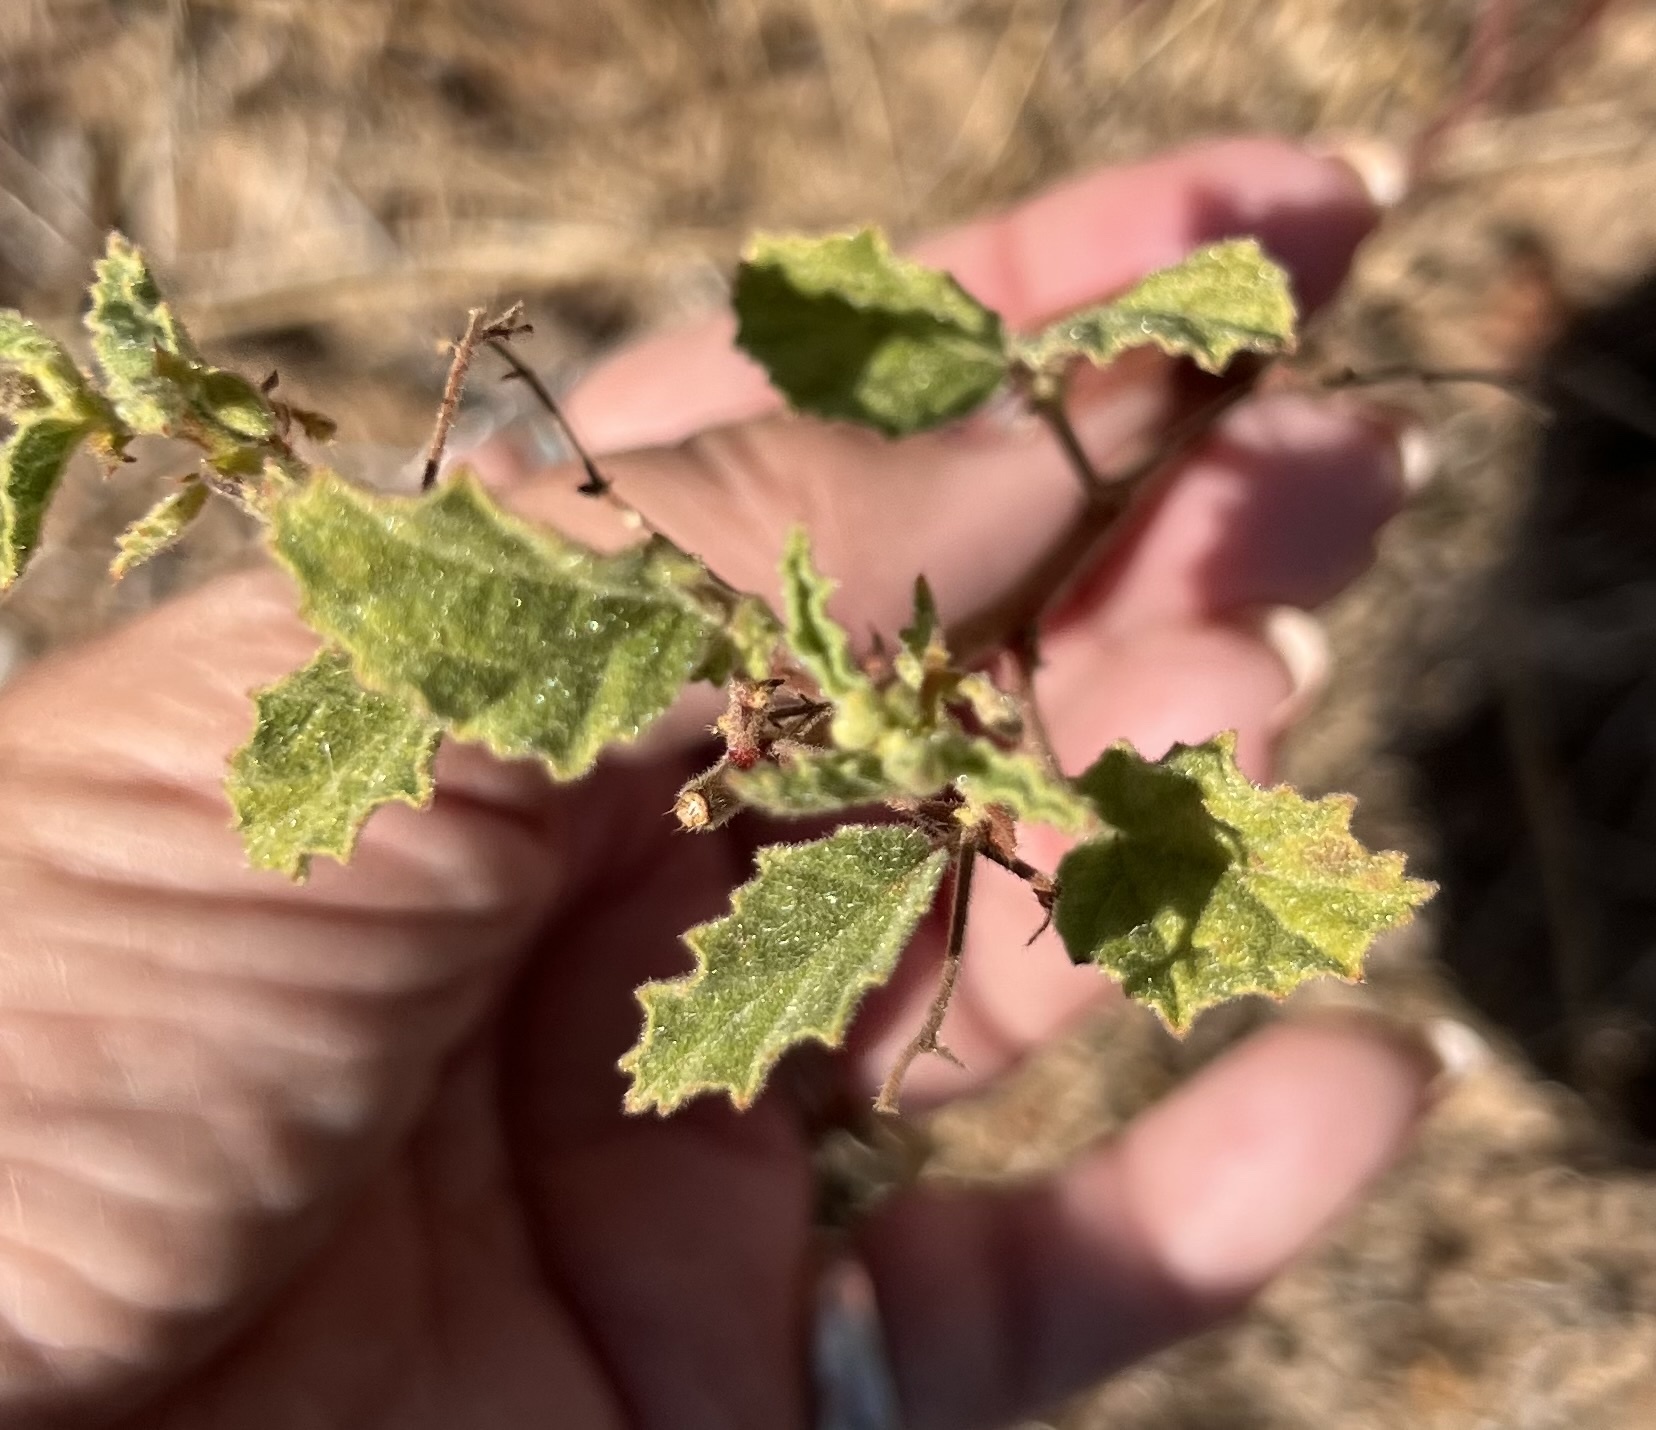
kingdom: Plantae
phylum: Tracheophyta
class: Magnoliopsida
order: Malvales
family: Malvaceae
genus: Hermannia
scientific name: Hermannia texana
